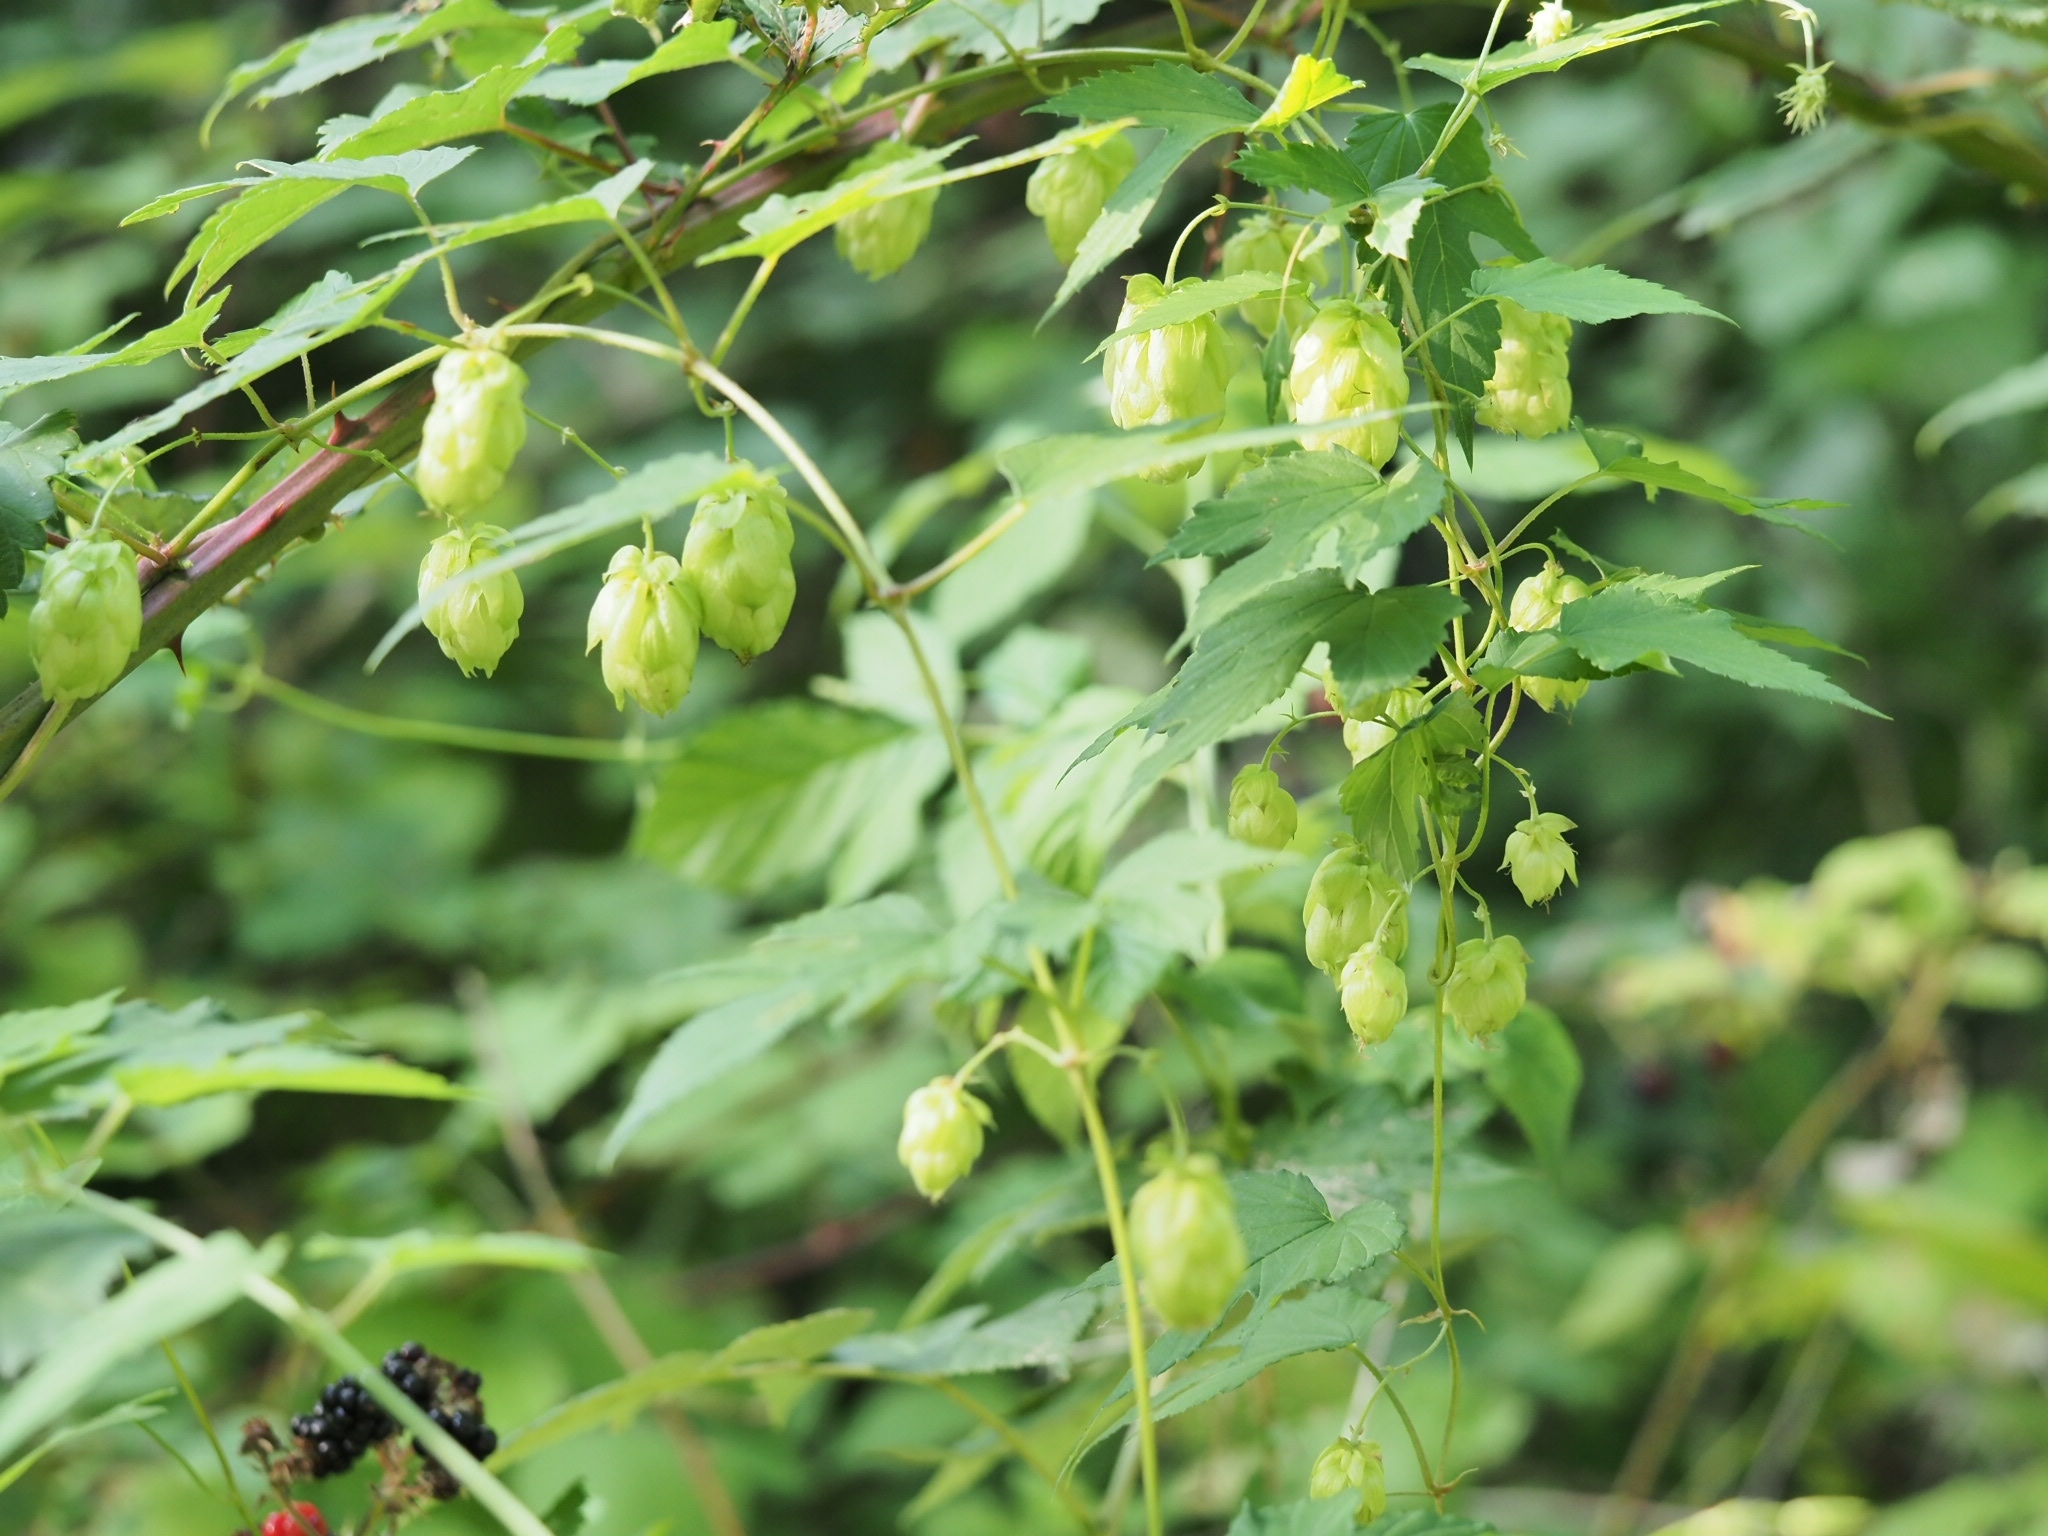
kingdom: Plantae
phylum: Tracheophyta
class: Magnoliopsida
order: Rosales
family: Cannabaceae
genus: Humulus
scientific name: Humulus lupulus
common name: Hop
